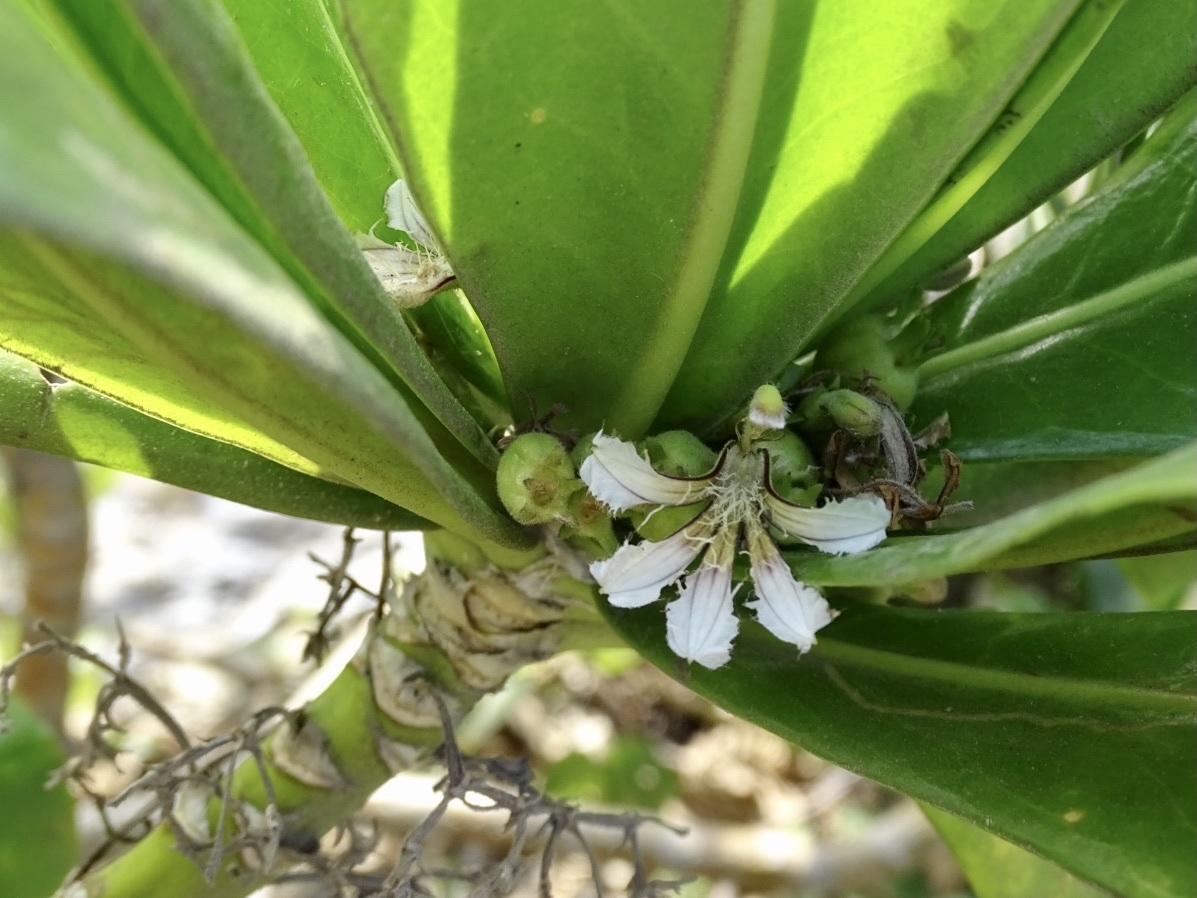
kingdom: Plantae
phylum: Tracheophyta
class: Magnoliopsida
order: Asterales
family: Goodeniaceae
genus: Scaevola
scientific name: Scaevola taccada
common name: Sea lettucetree
